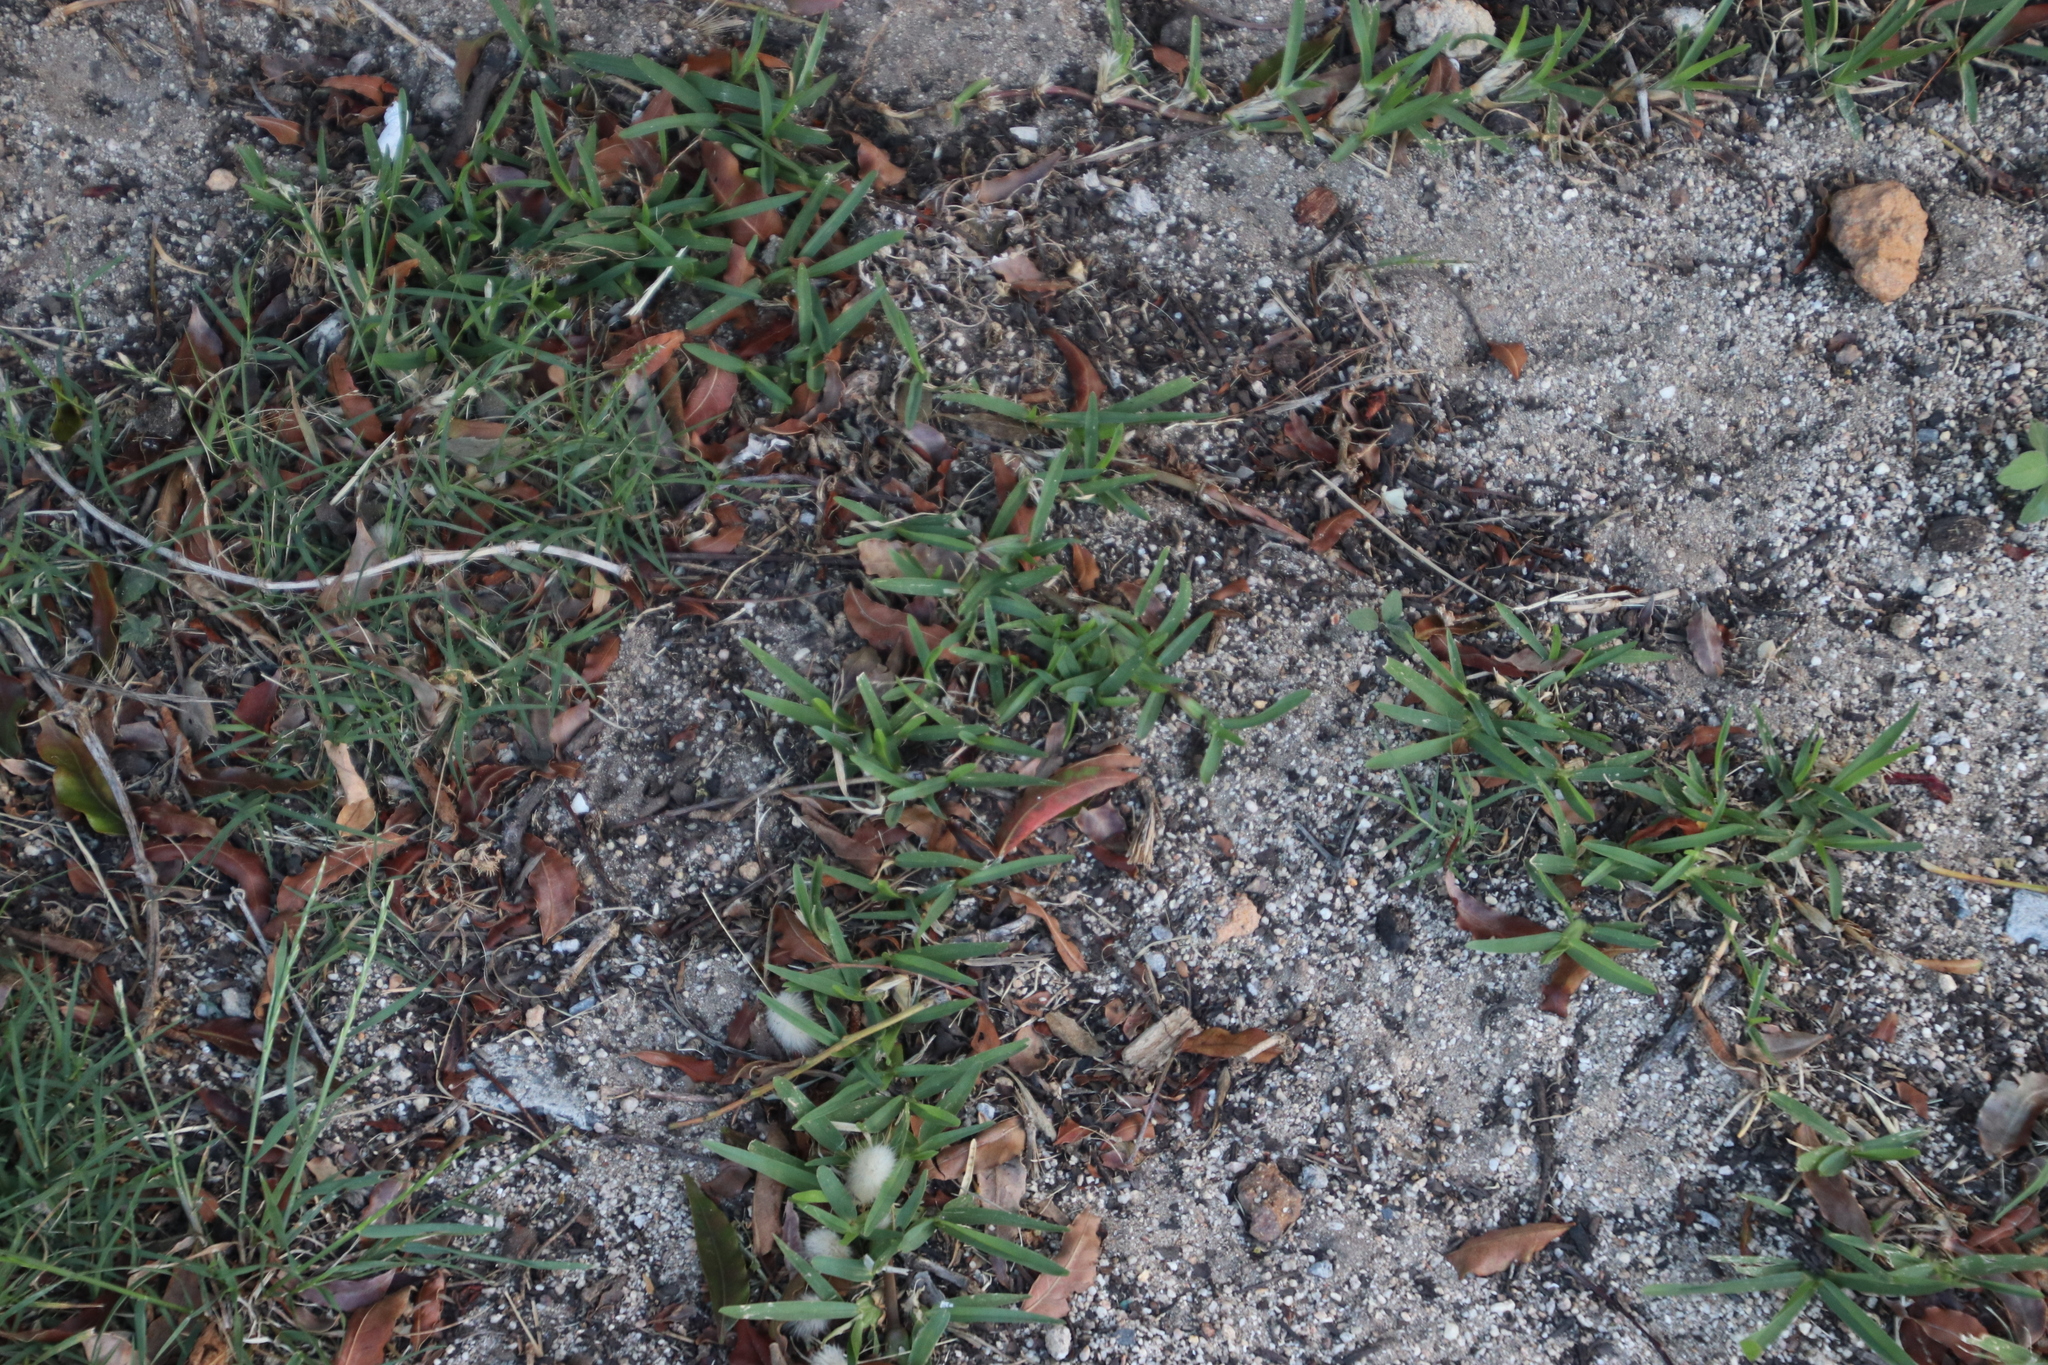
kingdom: Plantae
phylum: Tracheophyta
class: Liliopsida
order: Poales
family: Poaceae
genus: Stenotaphrum
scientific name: Stenotaphrum secundatum
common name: St. augustine grass
